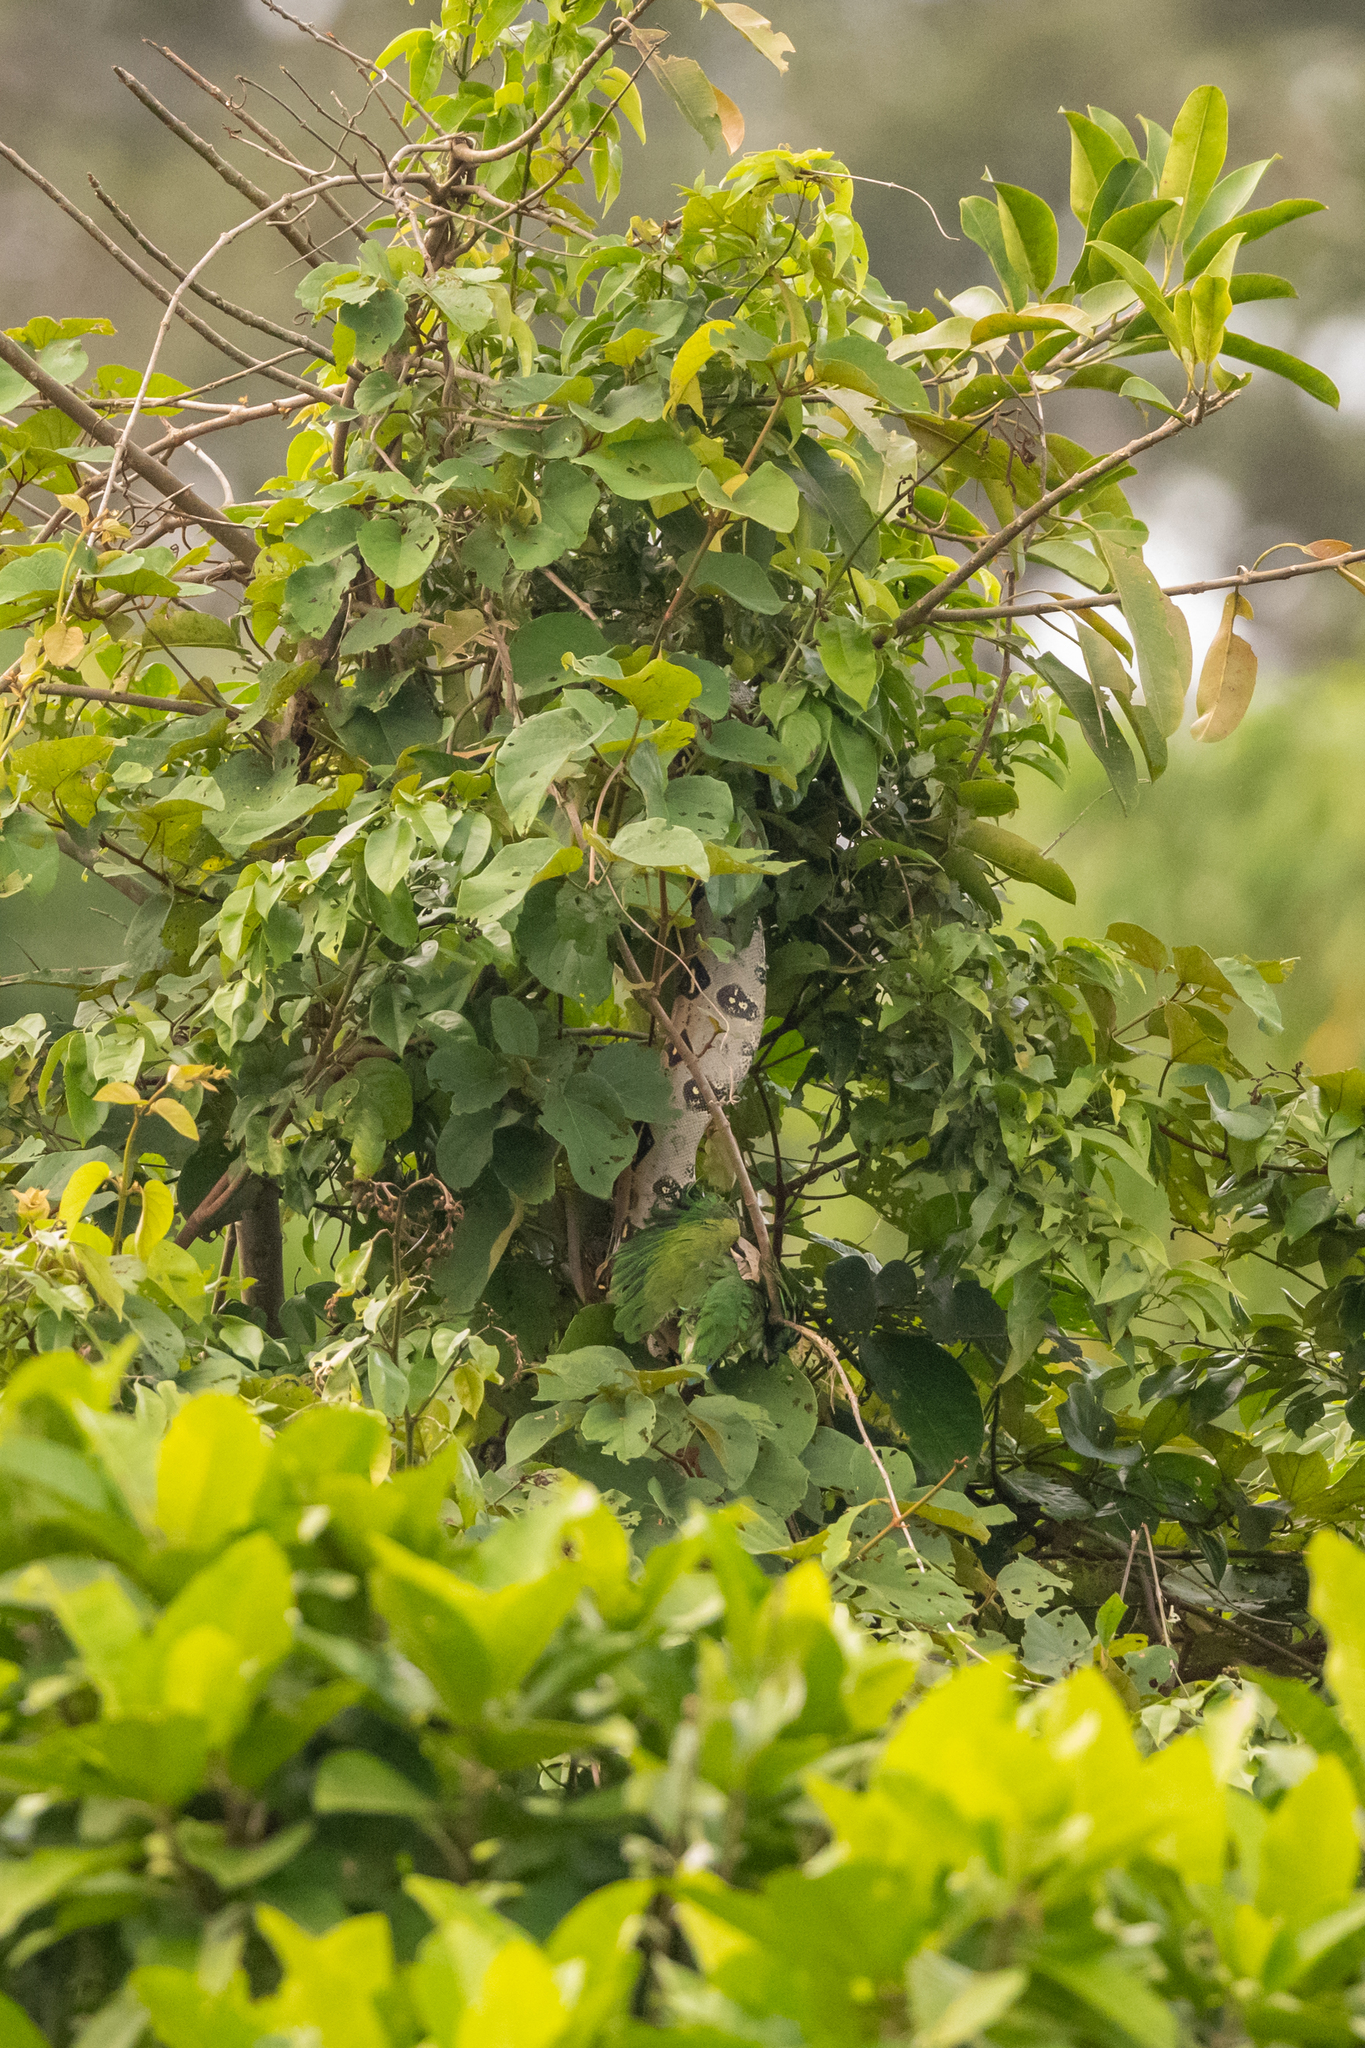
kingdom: Animalia
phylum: Chordata
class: Squamata
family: Boidae
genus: Boa
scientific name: Boa constrictor
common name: Boa constrictor
